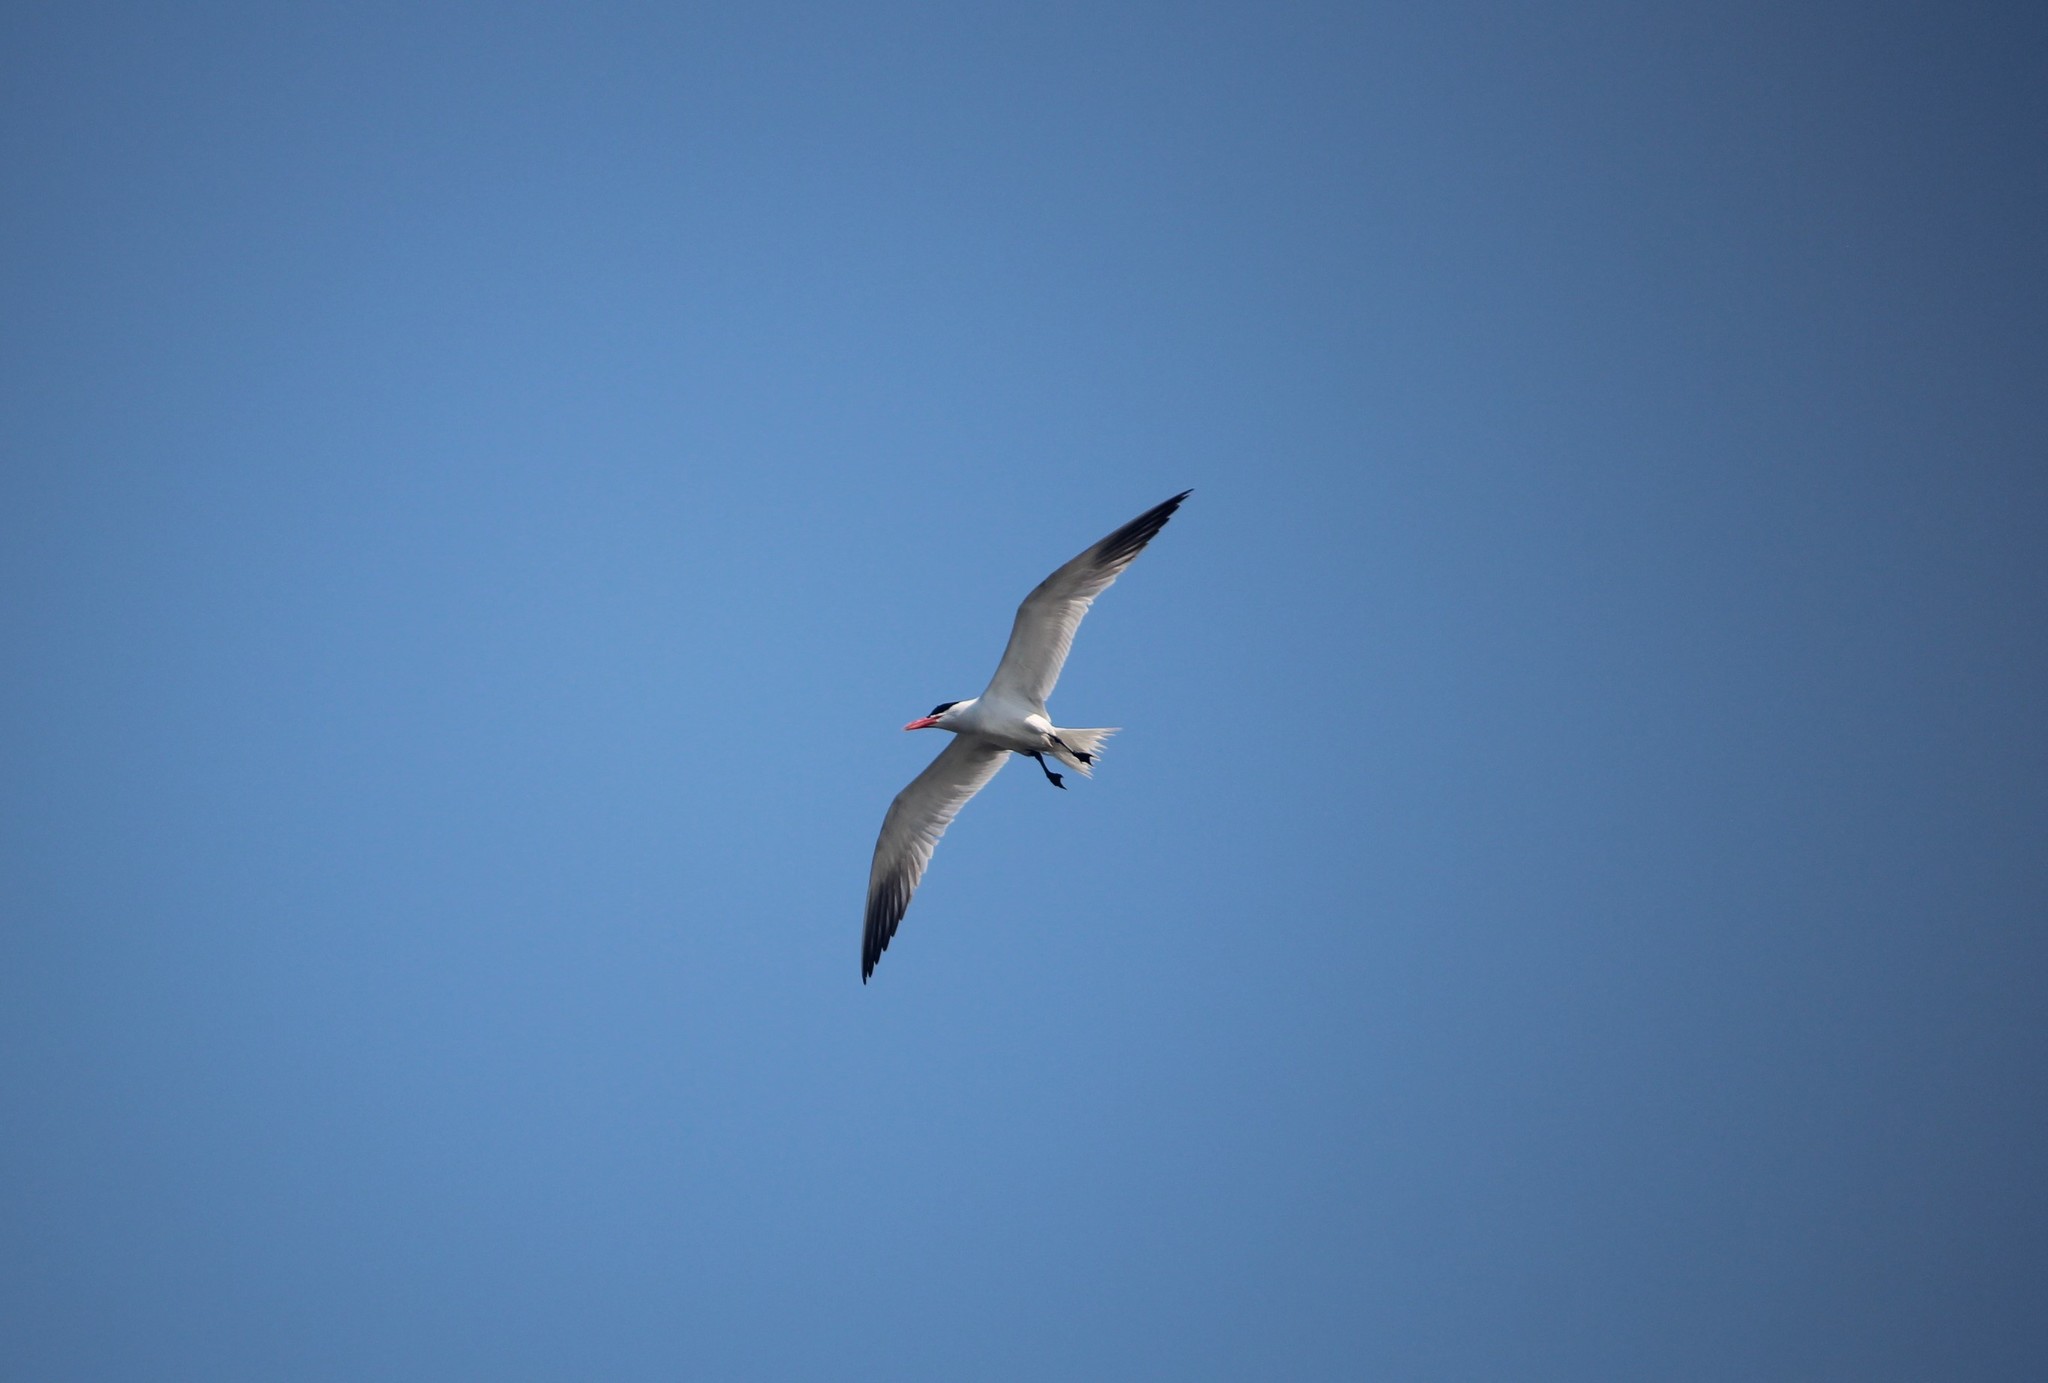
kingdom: Animalia
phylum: Chordata
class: Aves
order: Charadriiformes
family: Laridae
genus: Hydroprogne
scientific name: Hydroprogne caspia
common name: Caspian tern
